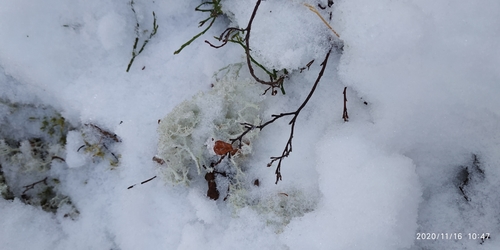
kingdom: Fungi
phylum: Ascomycota
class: Lecanoromycetes
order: Lecanorales
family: Cladoniaceae
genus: Cladonia
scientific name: Cladonia portentosa
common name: Reindeer lichen
